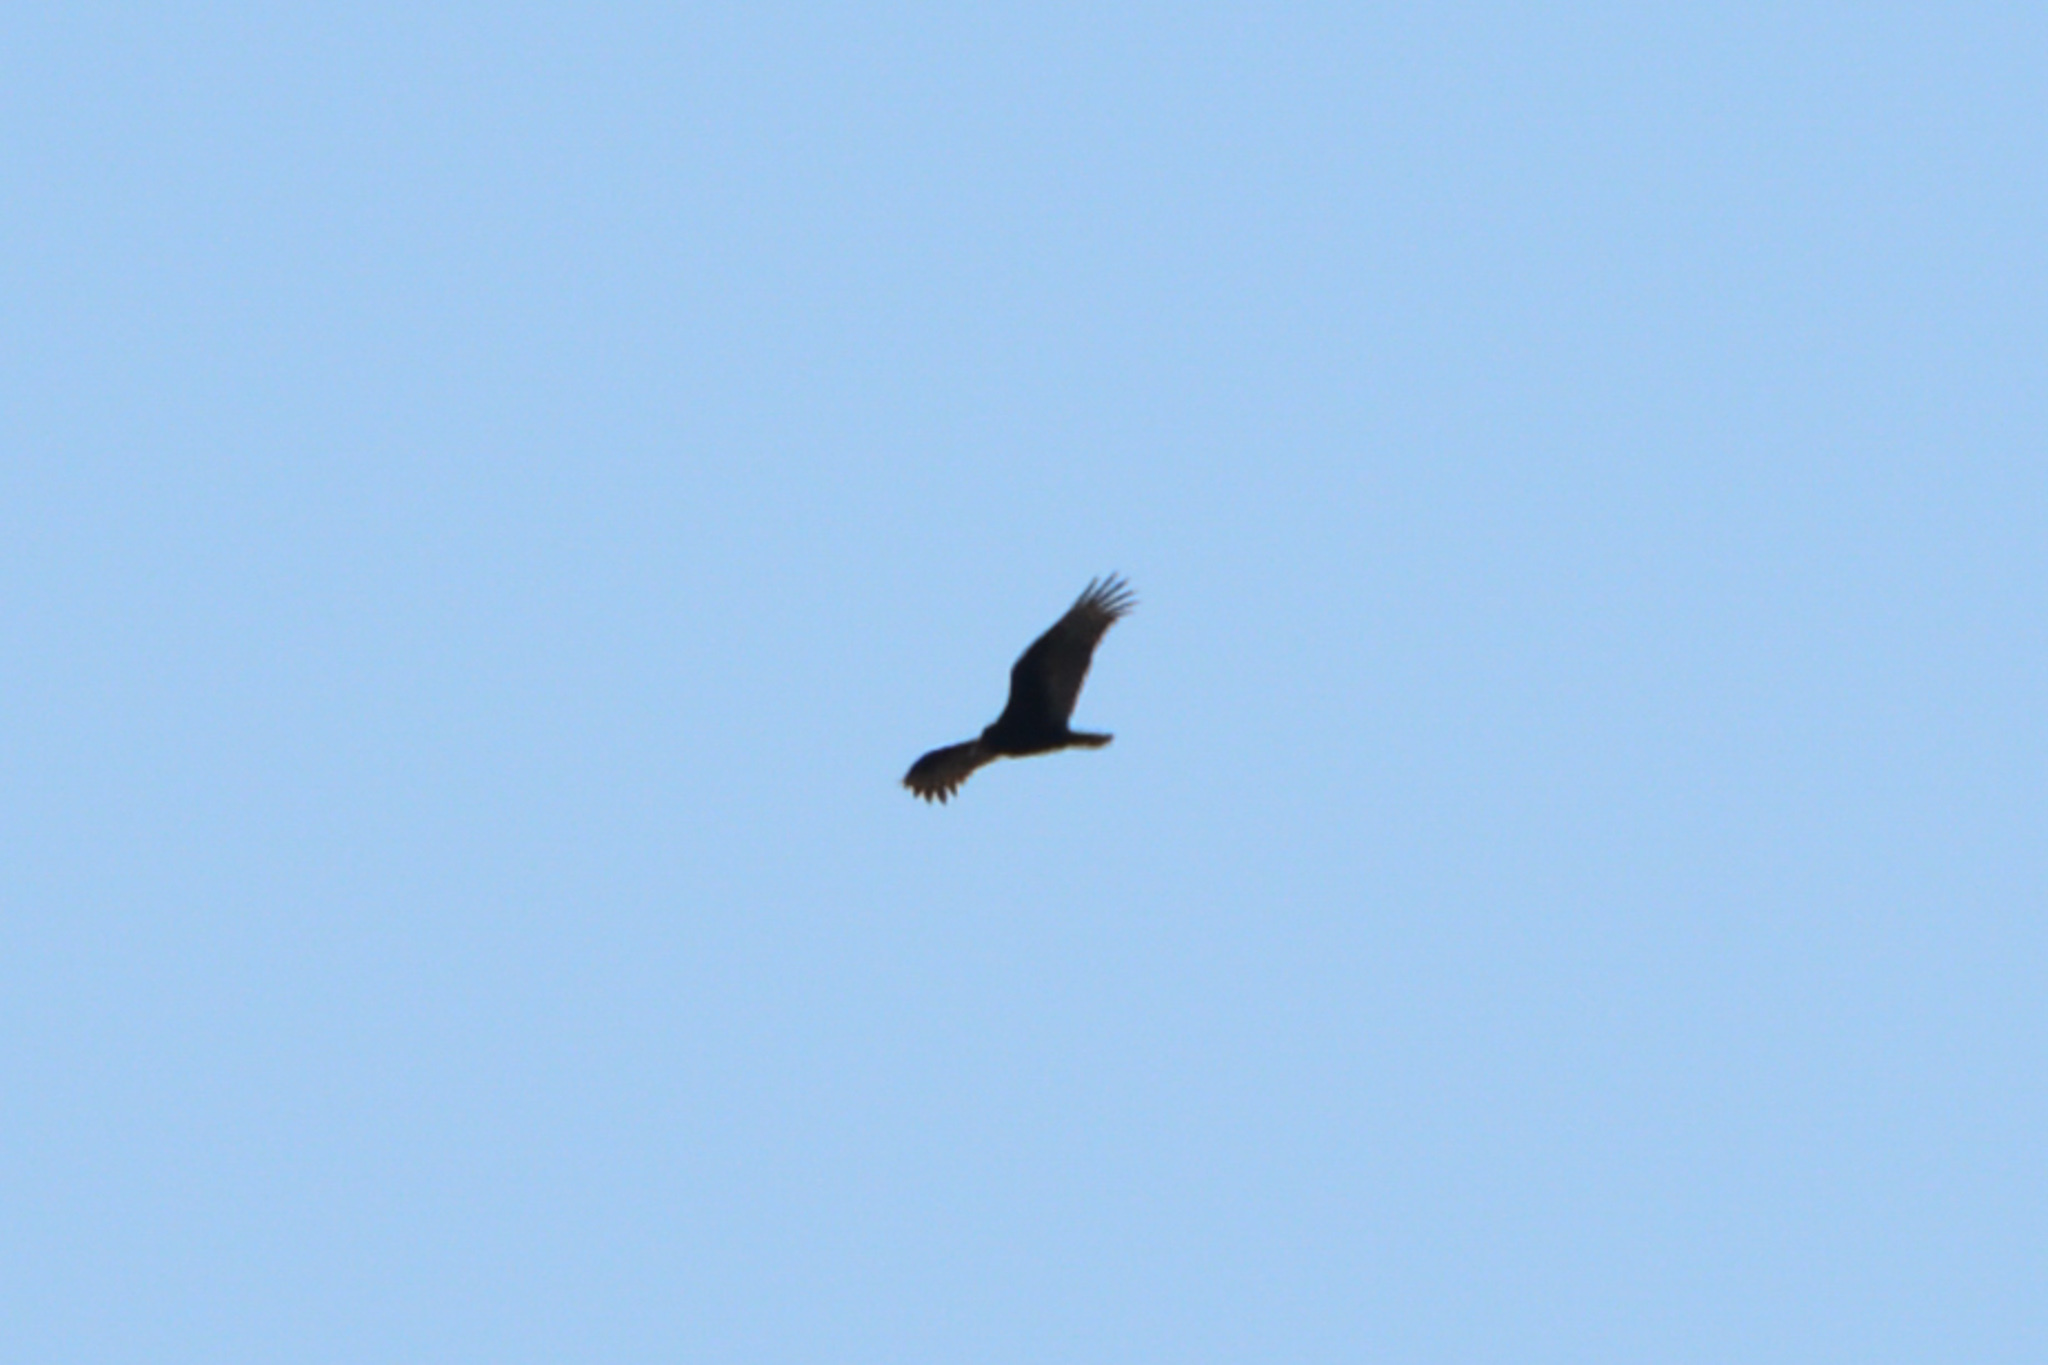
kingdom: Animalia
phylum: Chordata
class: Aves
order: Accipitriformes
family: Cathartidae
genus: Cathartes
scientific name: Cathartes aura
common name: Turkey vulture
